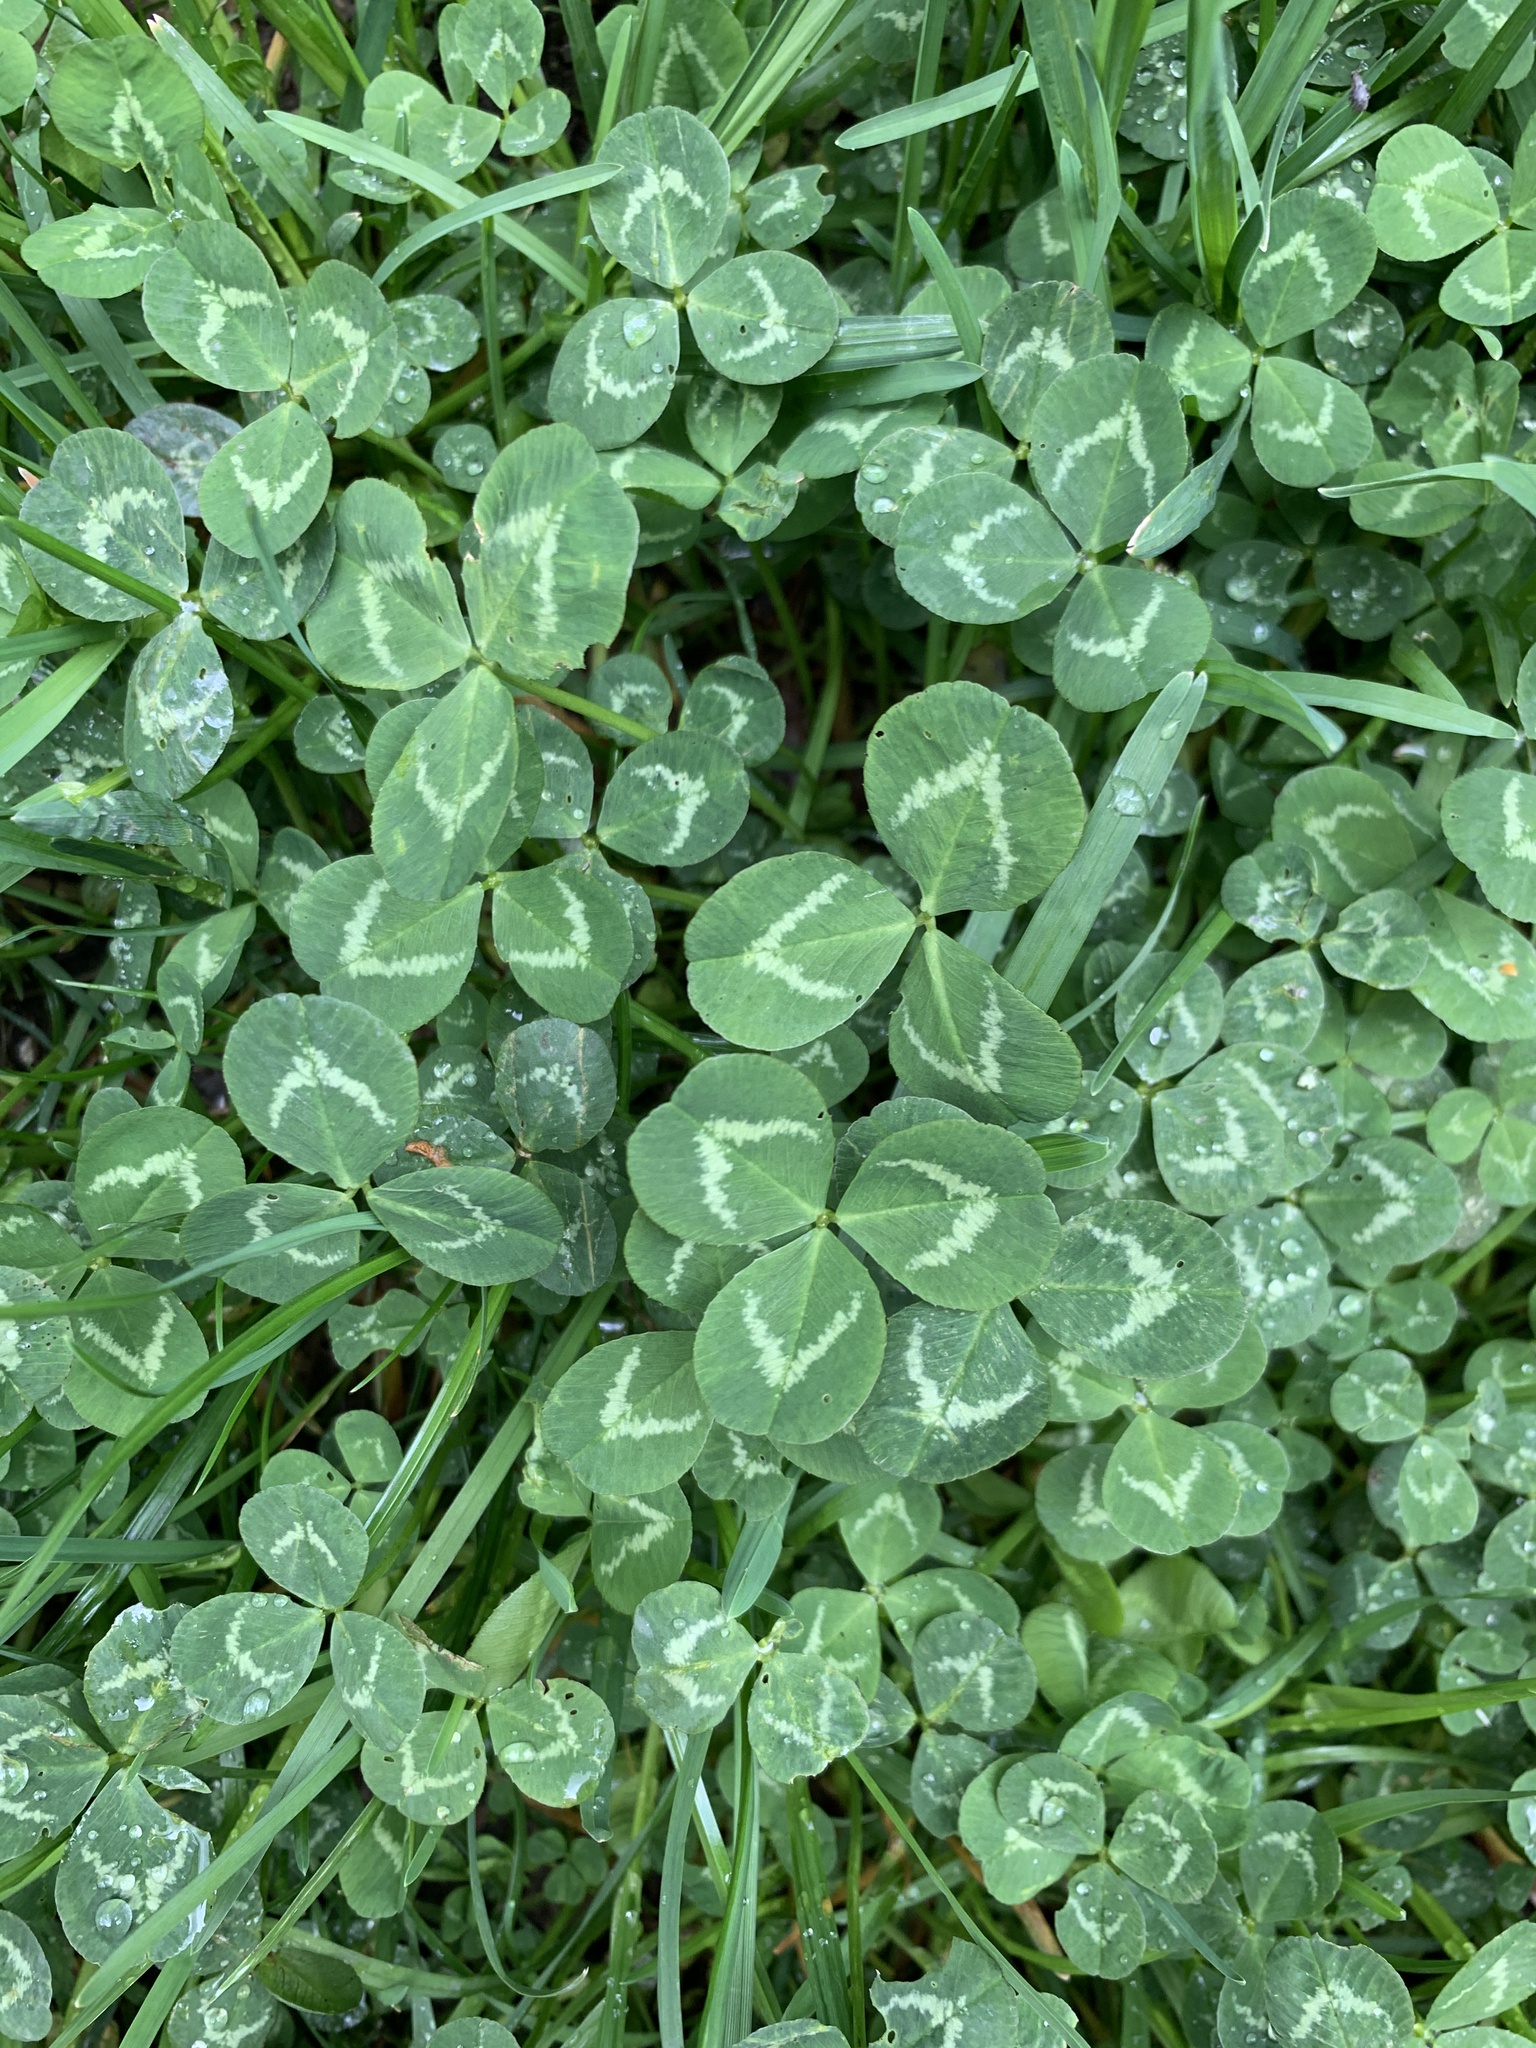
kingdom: Plantae
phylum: Tracheophyta
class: Magnoliopsida
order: Fabales
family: Fabaceae
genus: Trifolium
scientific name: Trifolium repens
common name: White clover
